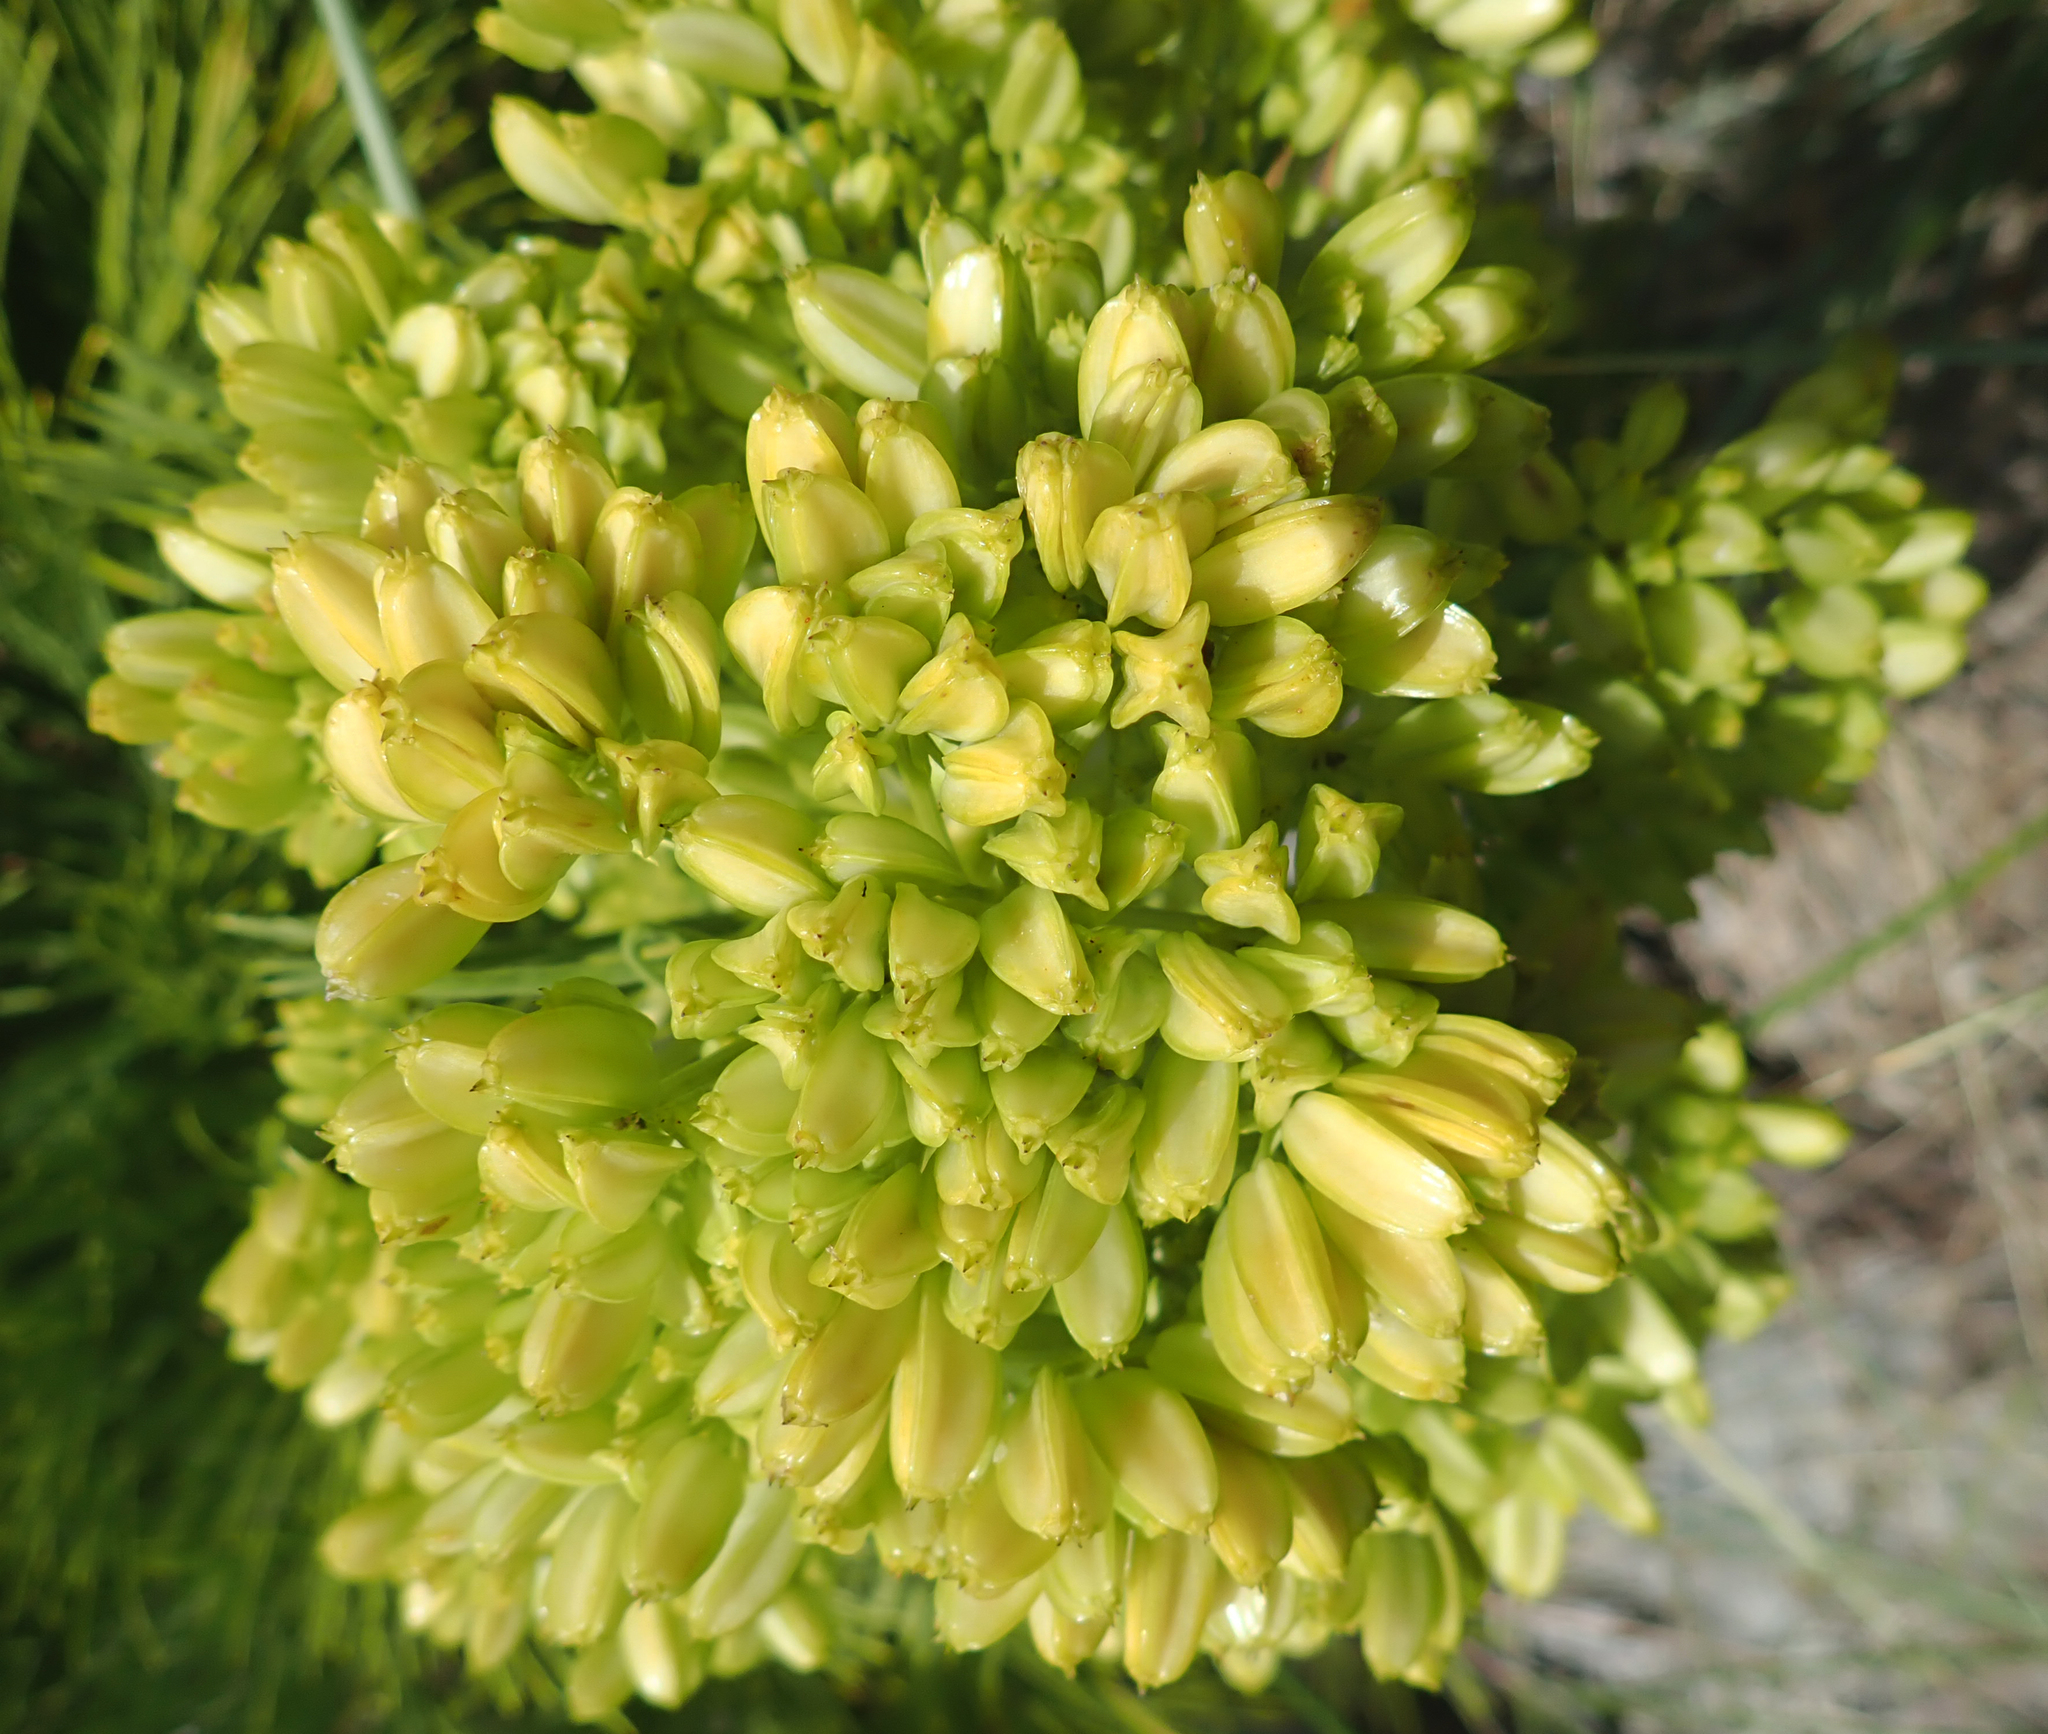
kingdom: Plantae
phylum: Tracheophyta
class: Magnoliopsida
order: Apiales
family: Apiaceae
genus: Aciphylla
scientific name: Aciphylla dieffenbachii
